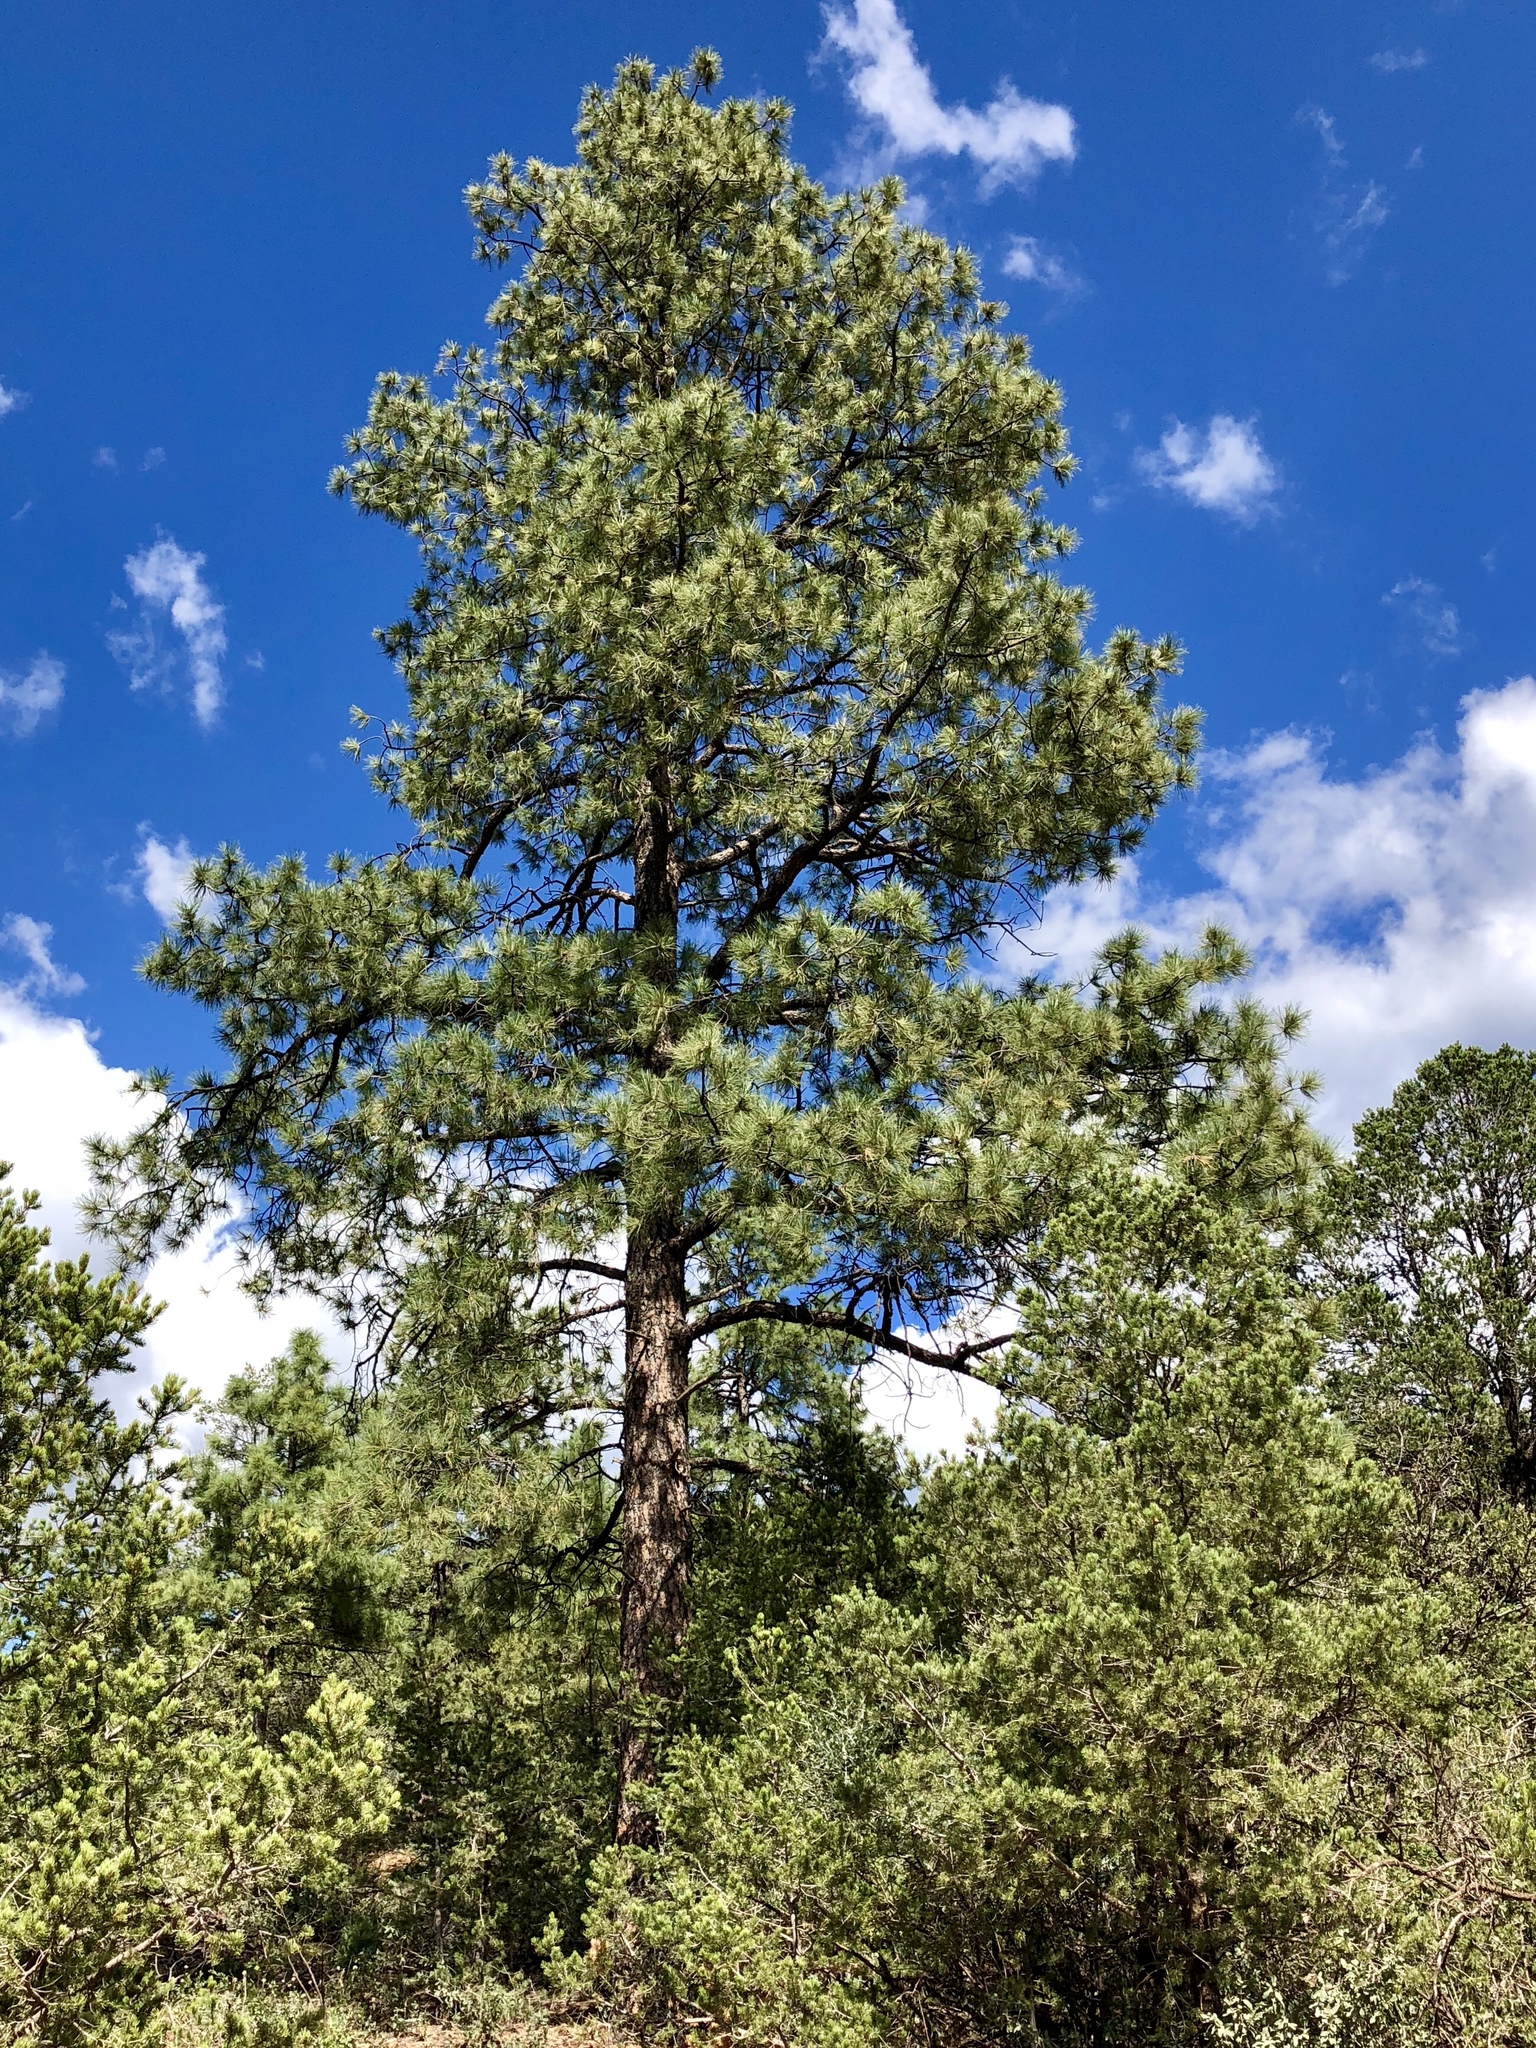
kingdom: Plantae
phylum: Tracheophyta
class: Pinopsida
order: Pinales
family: Pinaceae
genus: Pinus
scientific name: Pinus ponderosa
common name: Western yellow-pine
